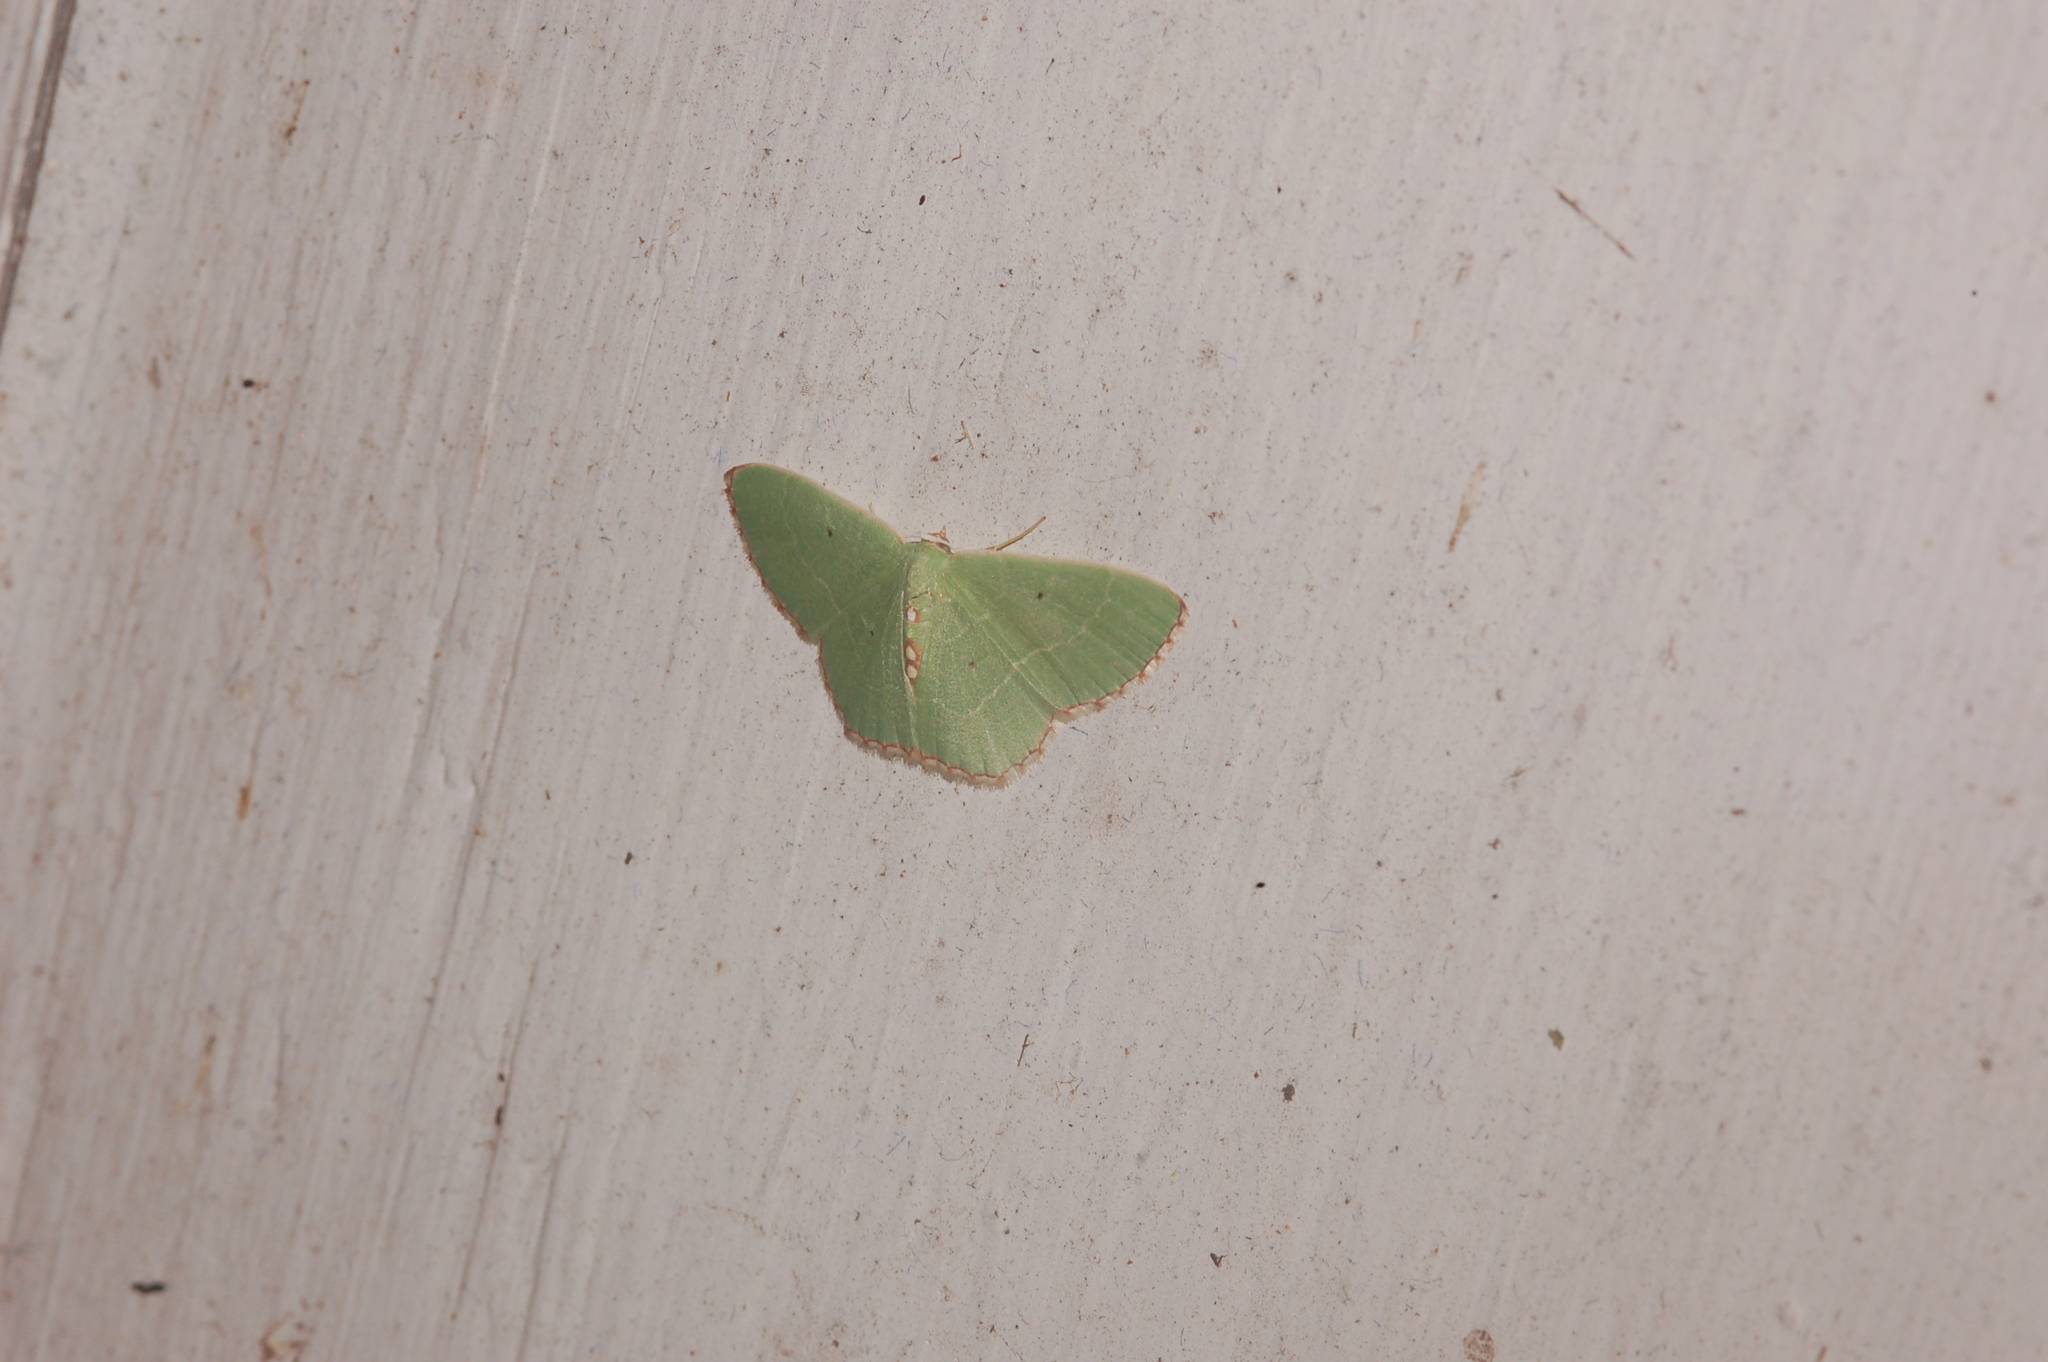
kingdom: Animalia
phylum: Arthropoda
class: Insecta
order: Lepidoptera
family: Geometridae
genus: Nemoria
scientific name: Nemoria lixaria
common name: Red-bordered emerald
